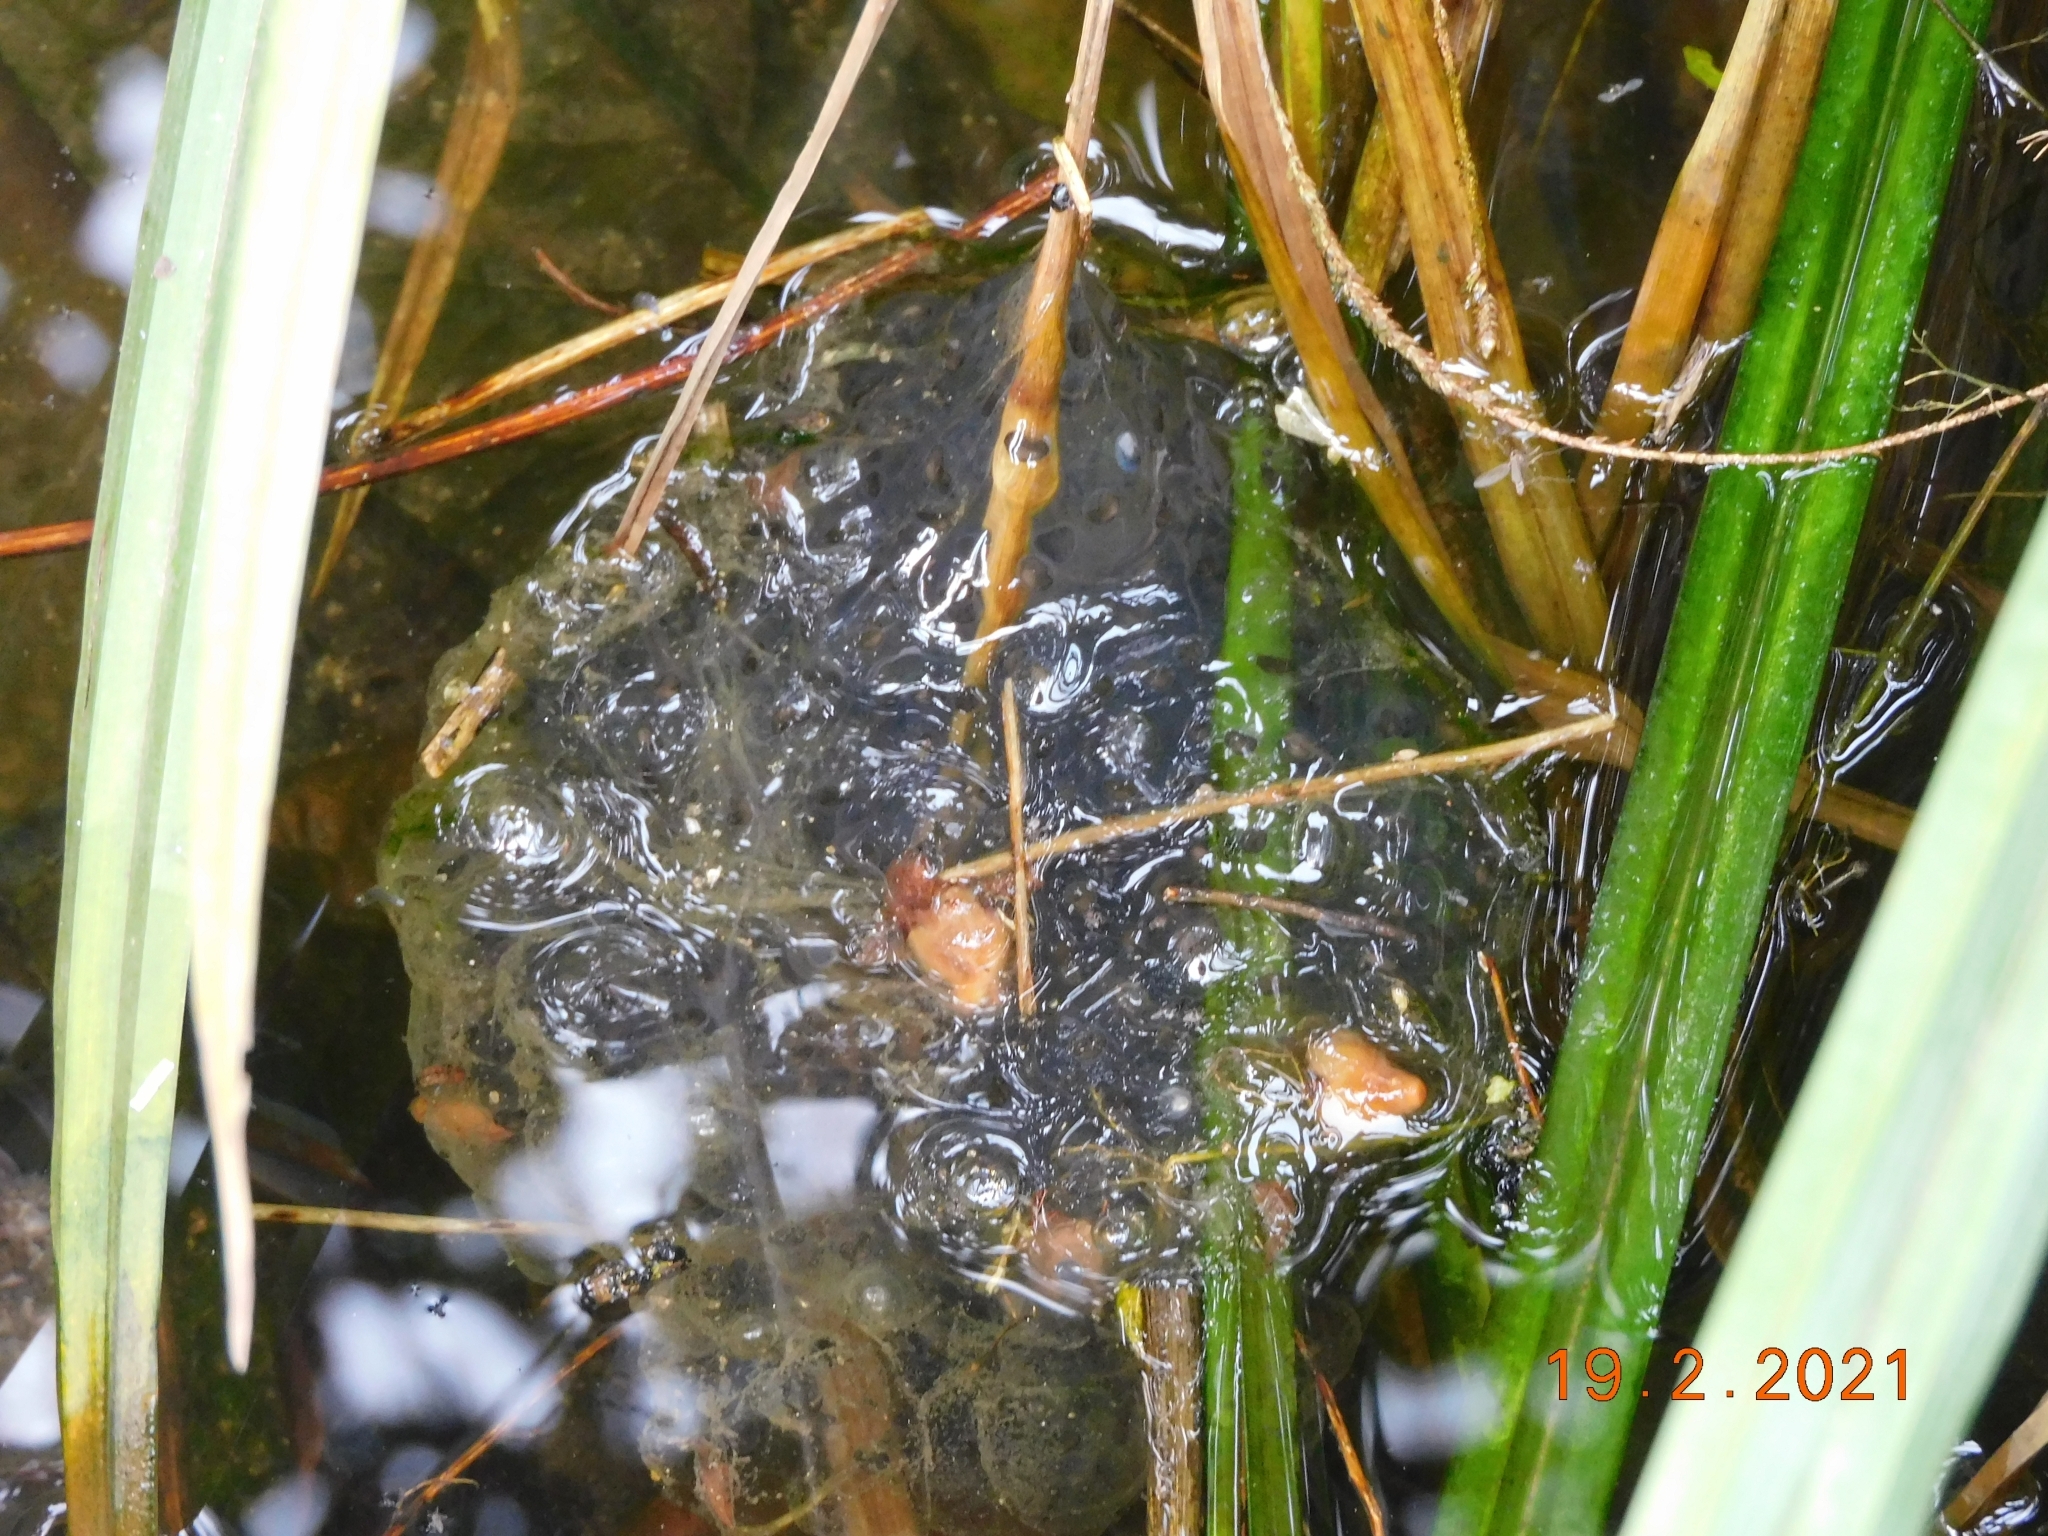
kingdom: Animalia
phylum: Chordata
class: Amphibia
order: Anura
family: Ranidae
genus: Rana
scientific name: Rana dalmatina
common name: Agile frog
